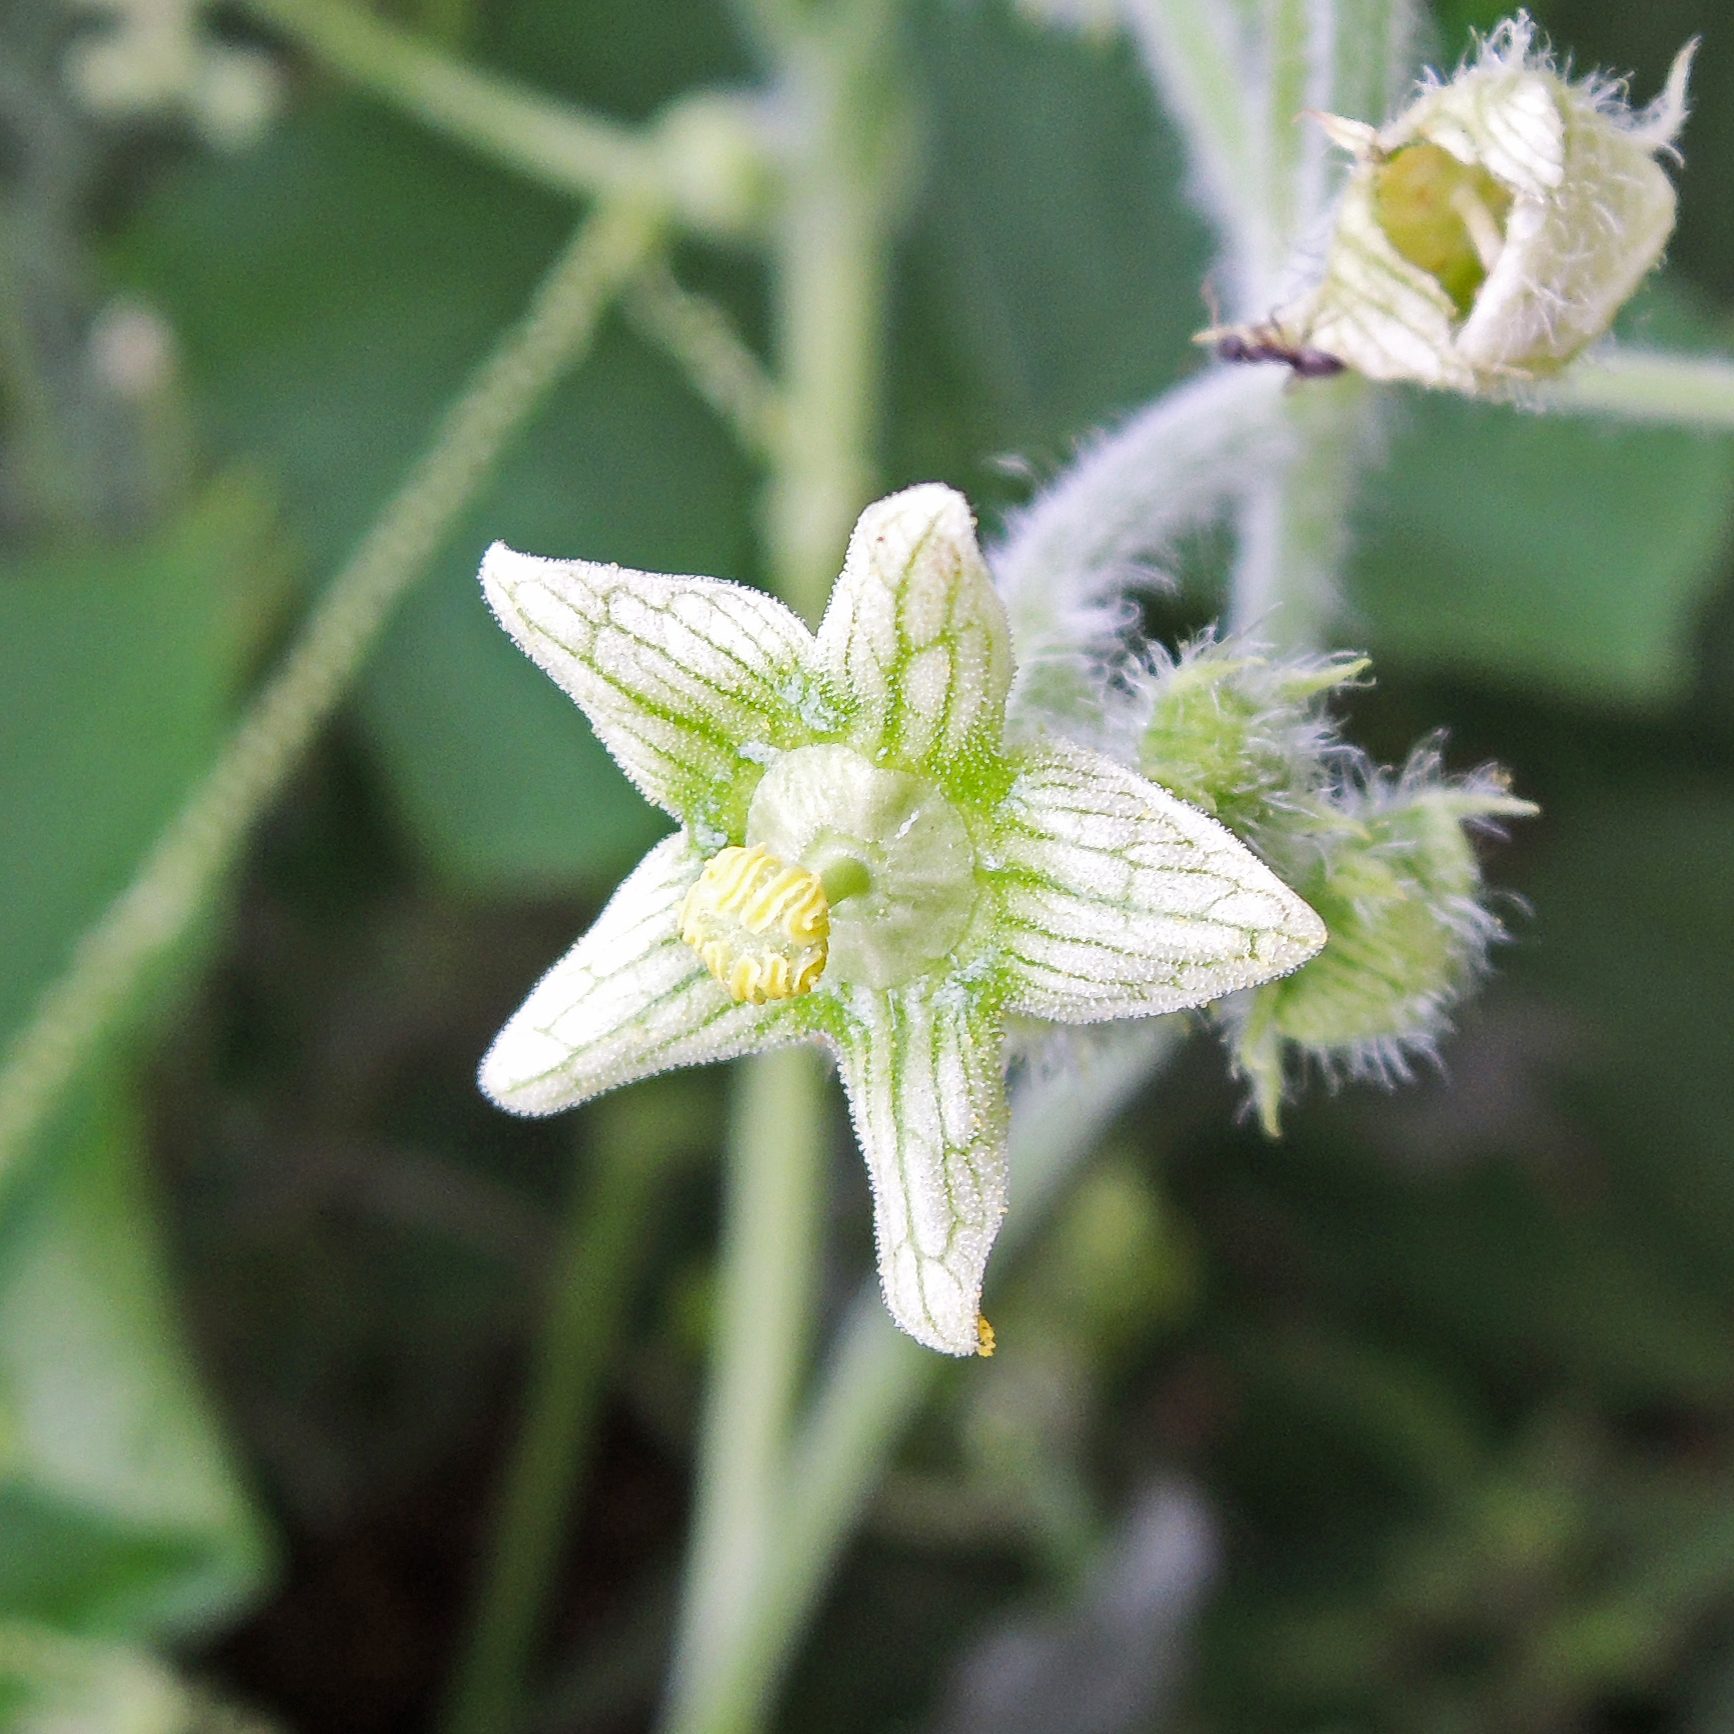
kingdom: Plantae
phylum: Tracheophyta
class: Magnoliopsida
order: Cucurbitales
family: Cucurbitaceae
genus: Sicyos
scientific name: Sicyos angulatus
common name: Angled burr cucumber
